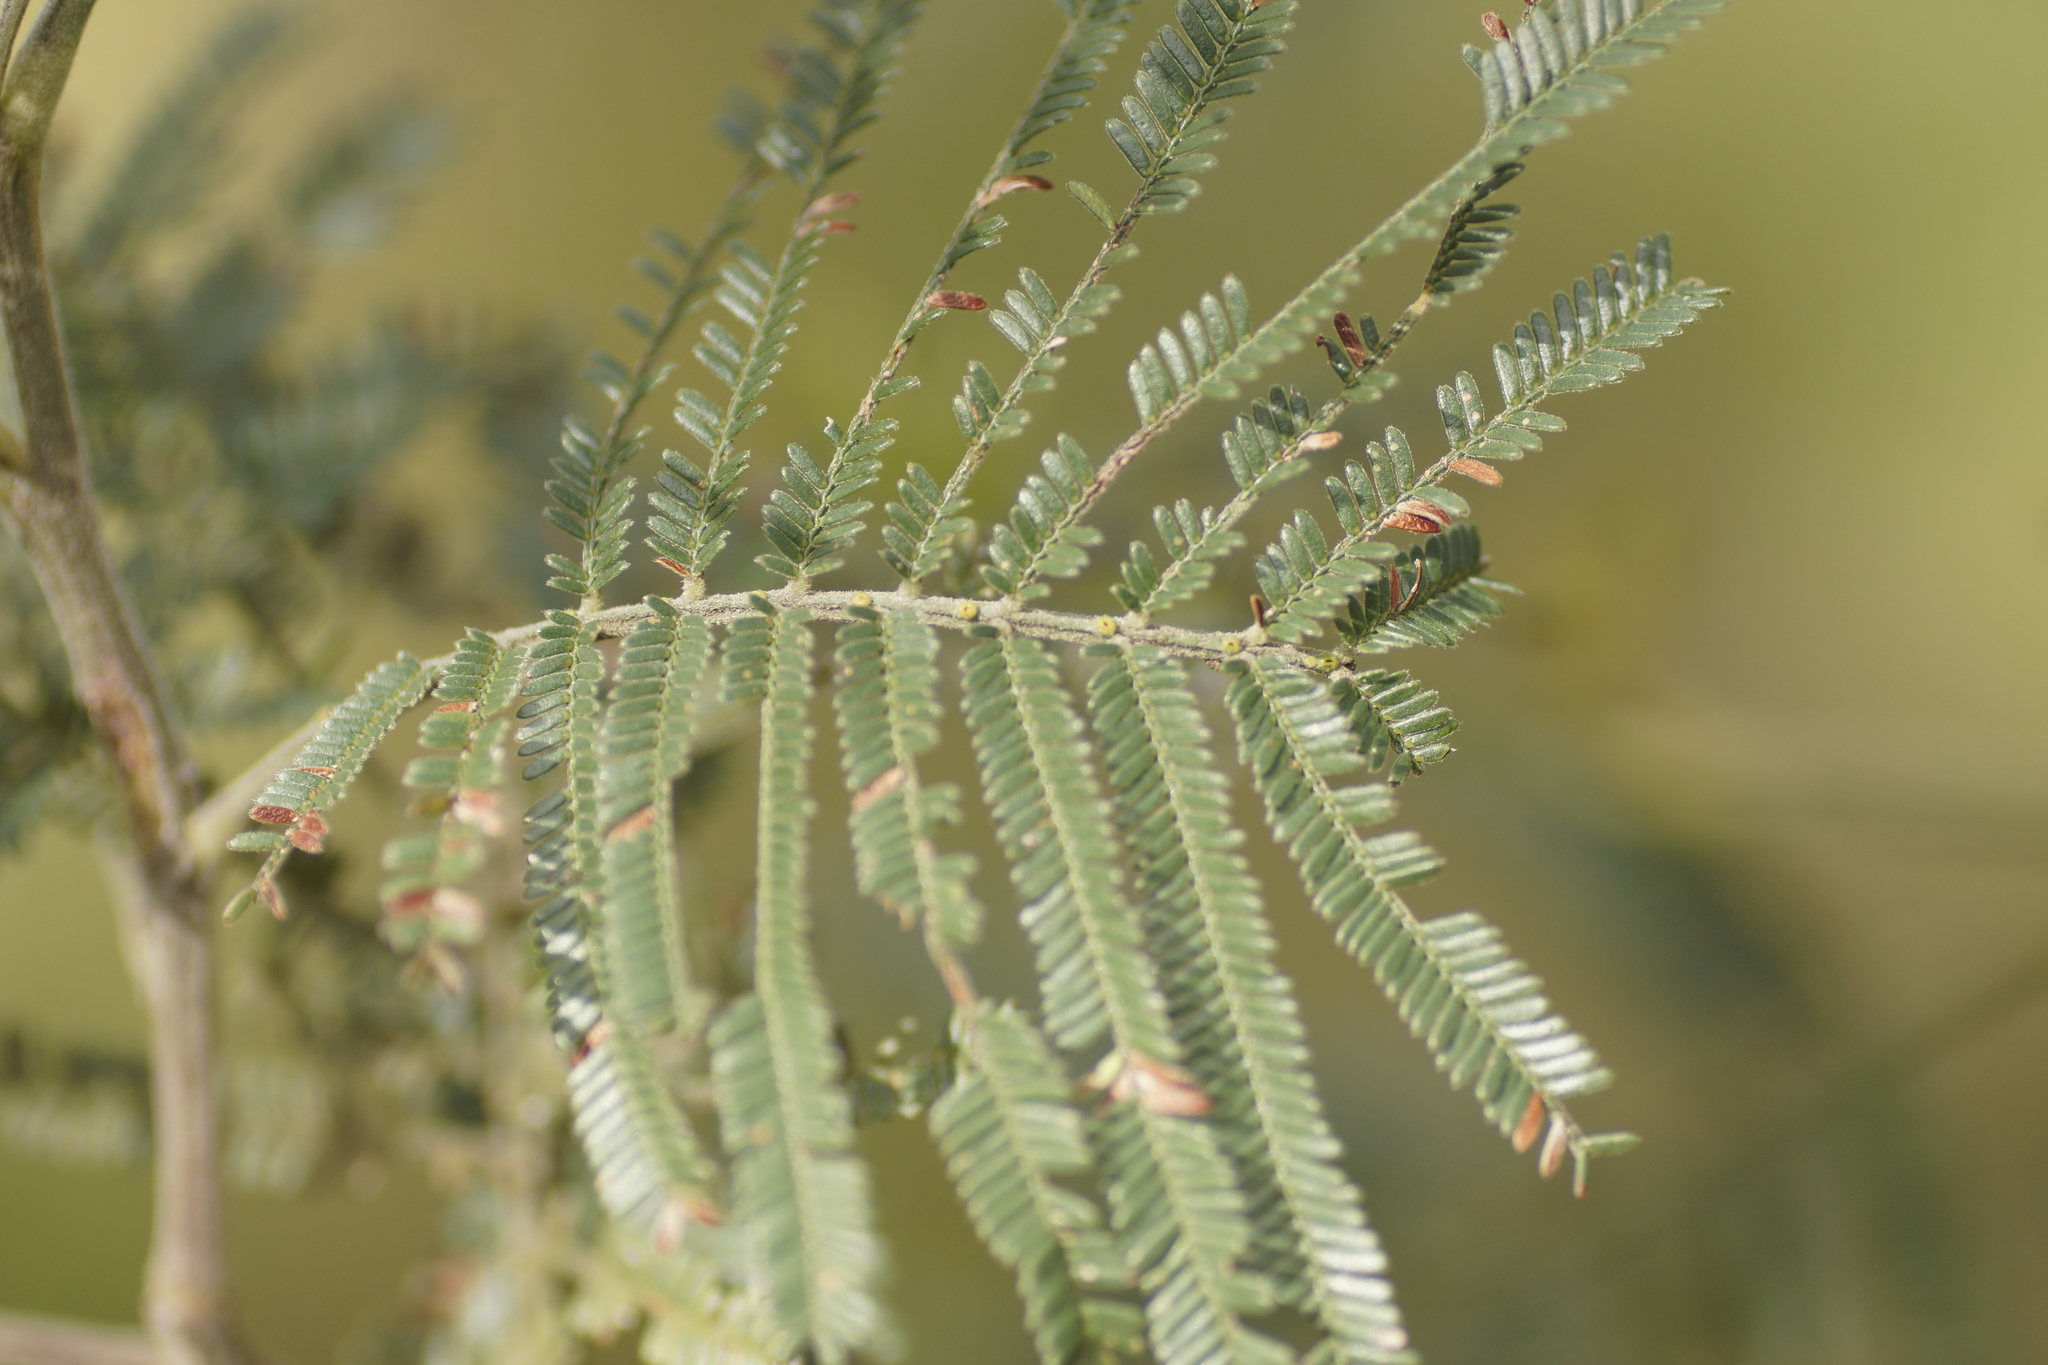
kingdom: Plantae
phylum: Tracheophyta
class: Magnoliopsida
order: Fabales
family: Fabaceae
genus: Acacia
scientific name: Acacia mearnsii
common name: Black wattle
